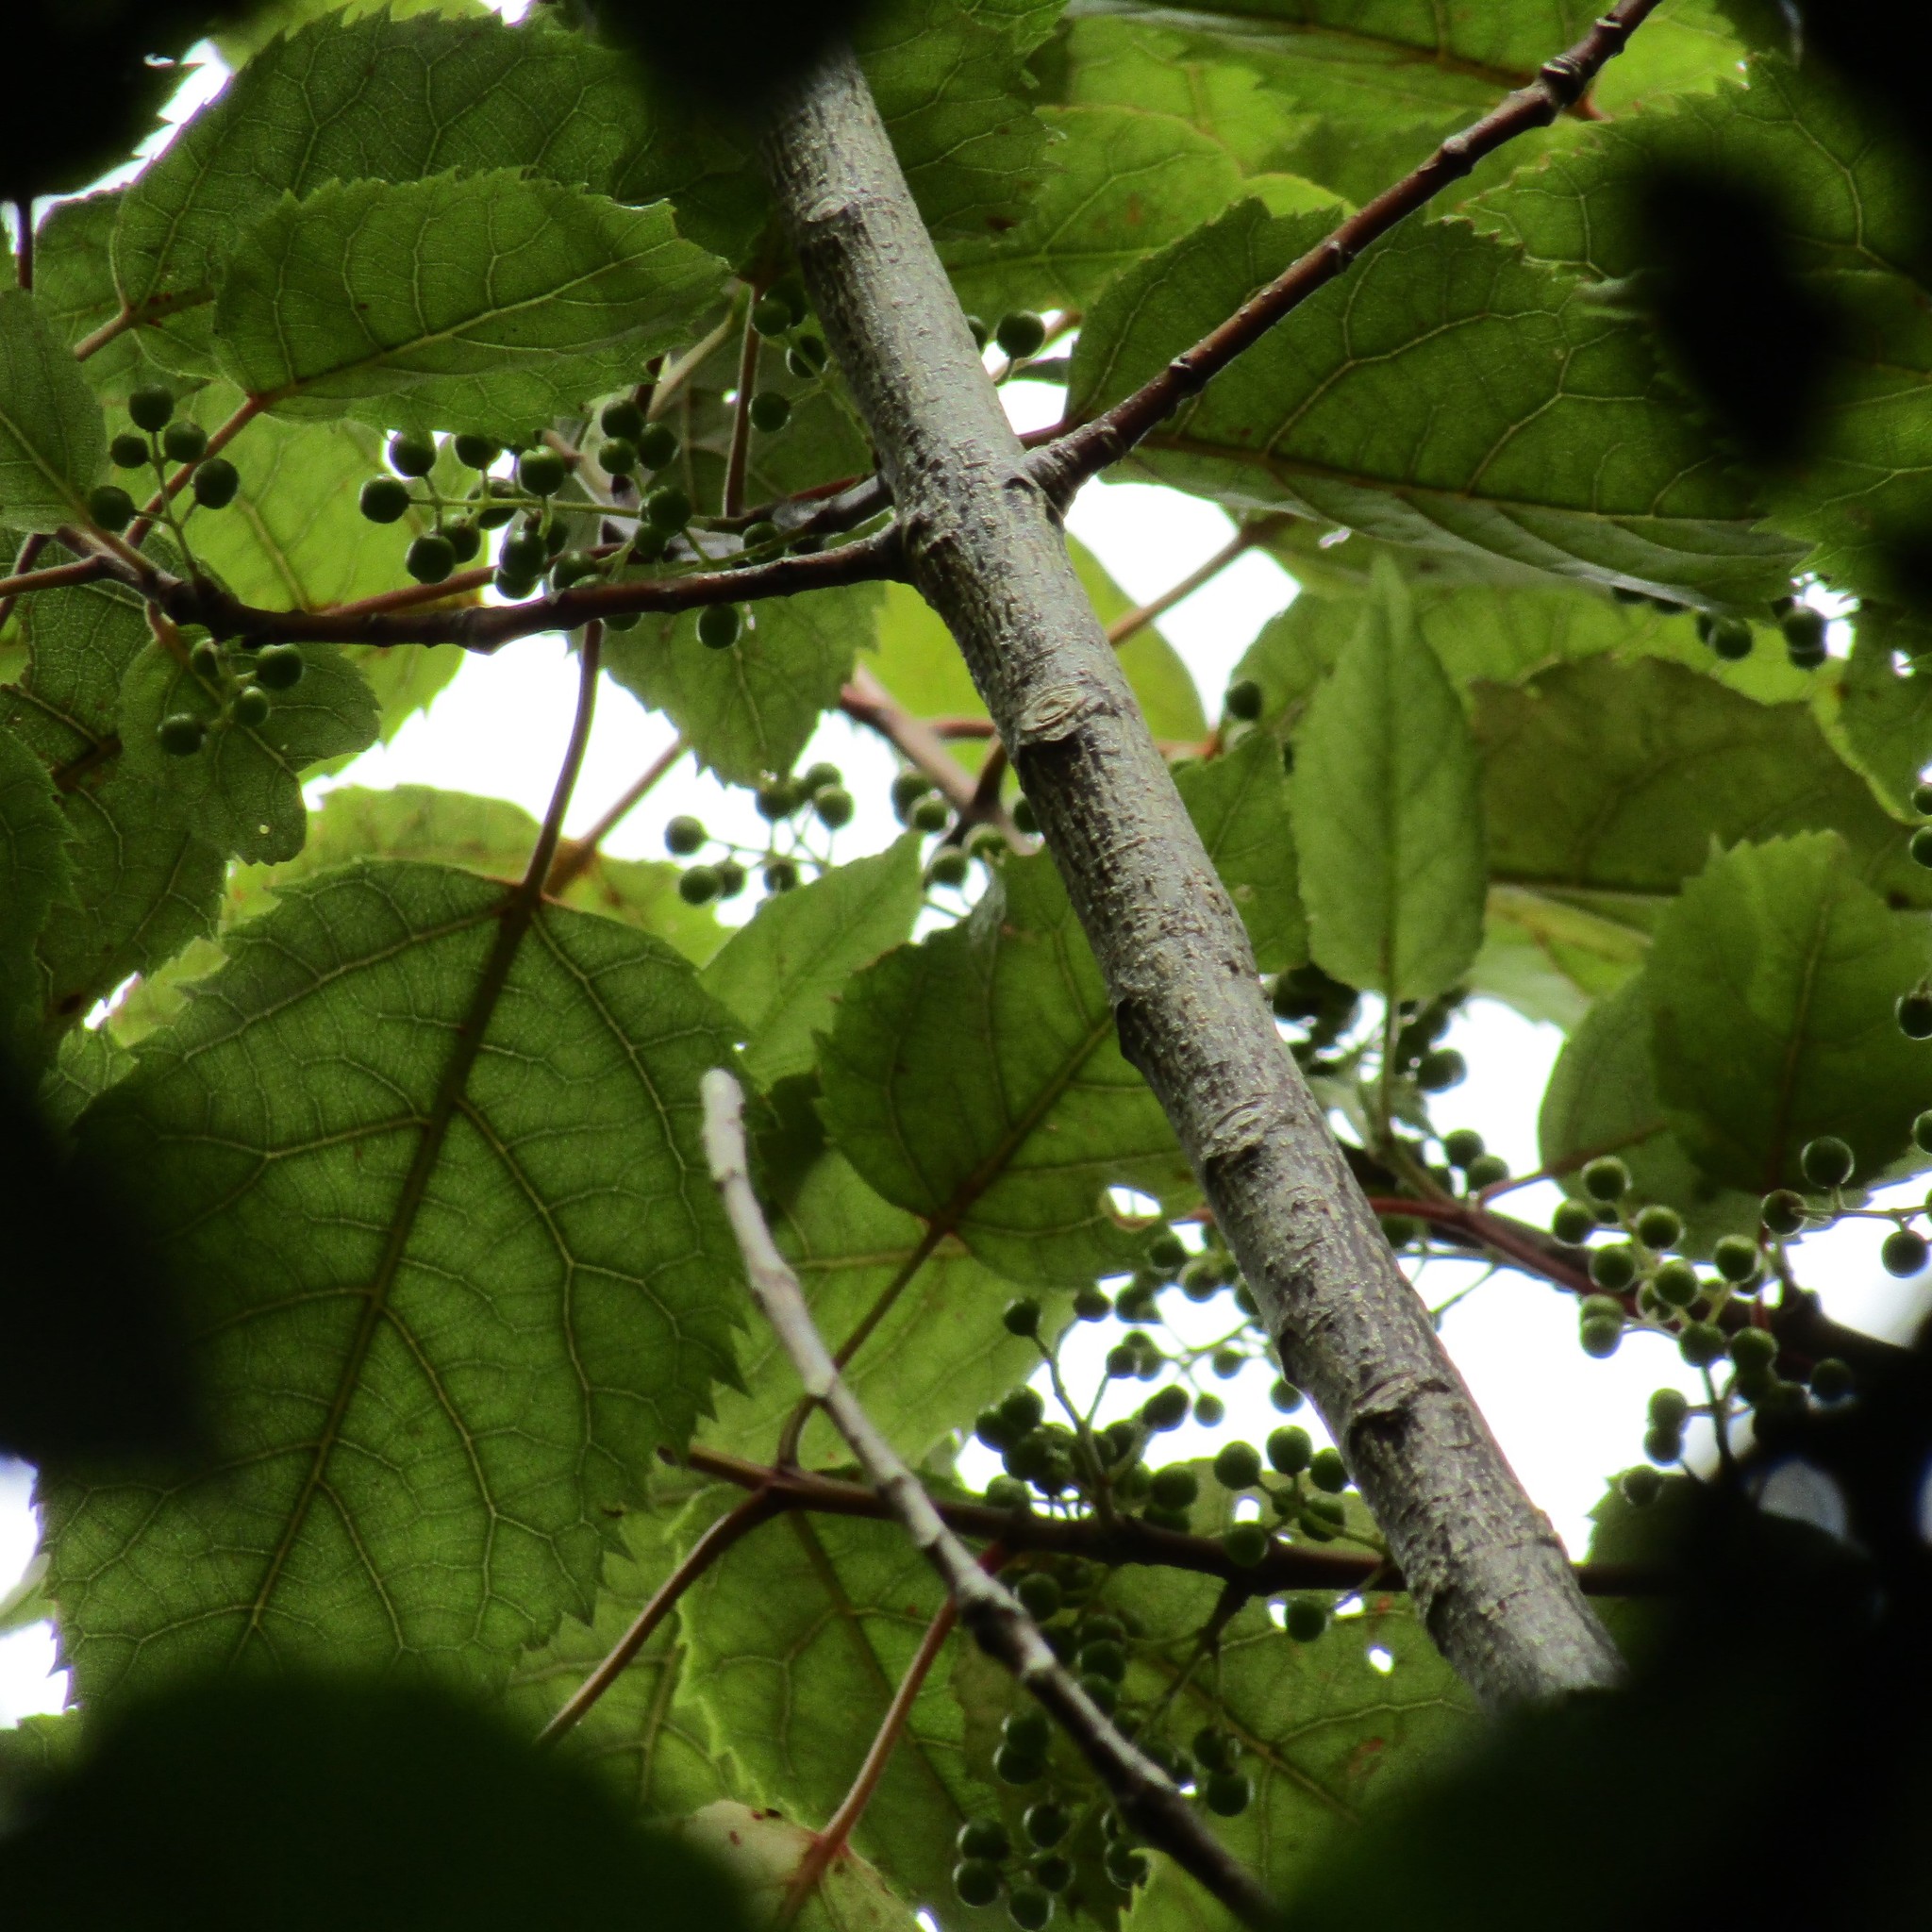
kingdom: Plantae
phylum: Tracheophyta
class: Magnoliopsida
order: Oxalidales
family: Elaeocarpaceae
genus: Aristotelia
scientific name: Aristotelia serrata
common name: New zealand wineberry
